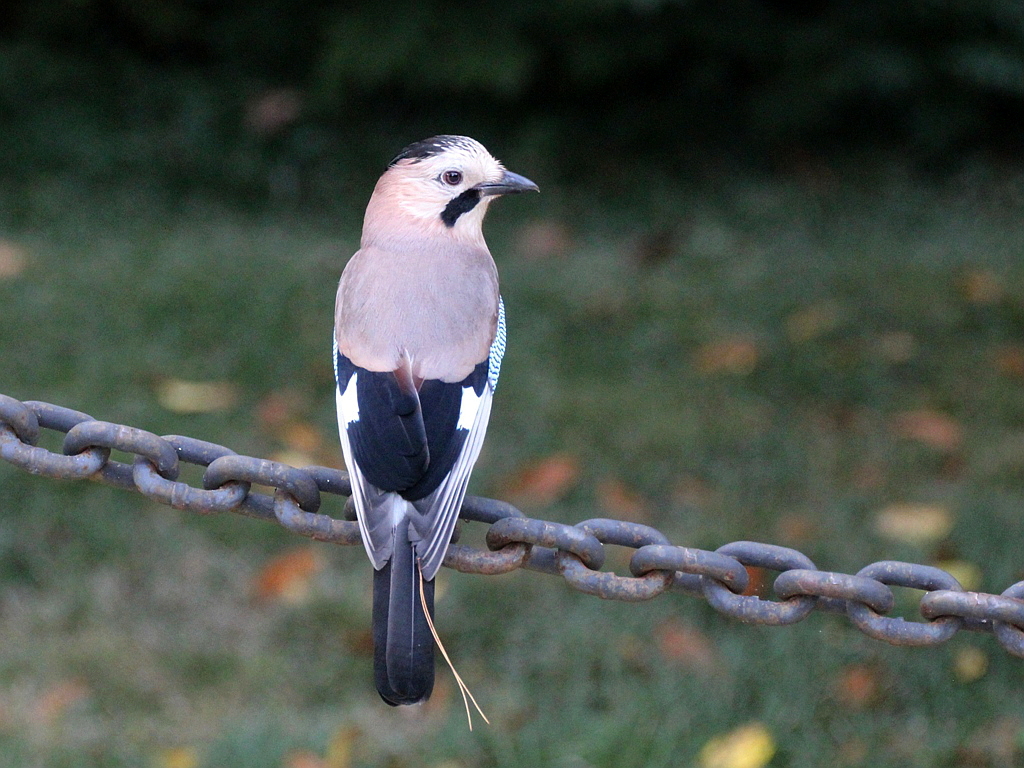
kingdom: Animalia
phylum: Chordata
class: Aves
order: Passeriformes
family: Corvidae
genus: Garrulus
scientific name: Garrulus glandarius
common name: Eurasian jay
